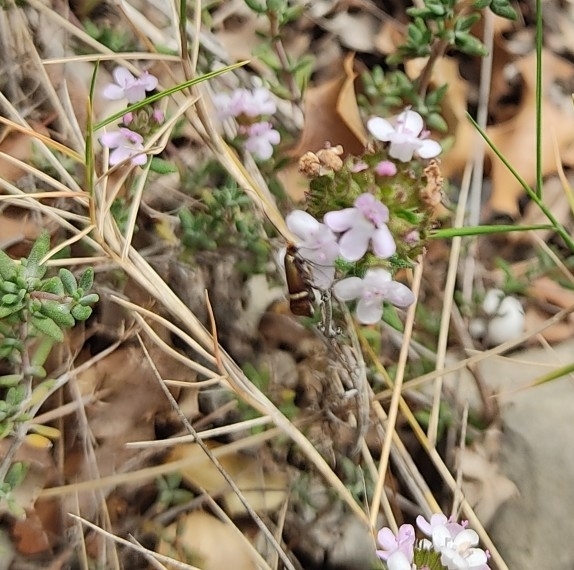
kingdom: Animalia
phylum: Arthropoda
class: Insecta
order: Lepidoptera
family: Adelidae
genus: Adela
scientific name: Adela australis
